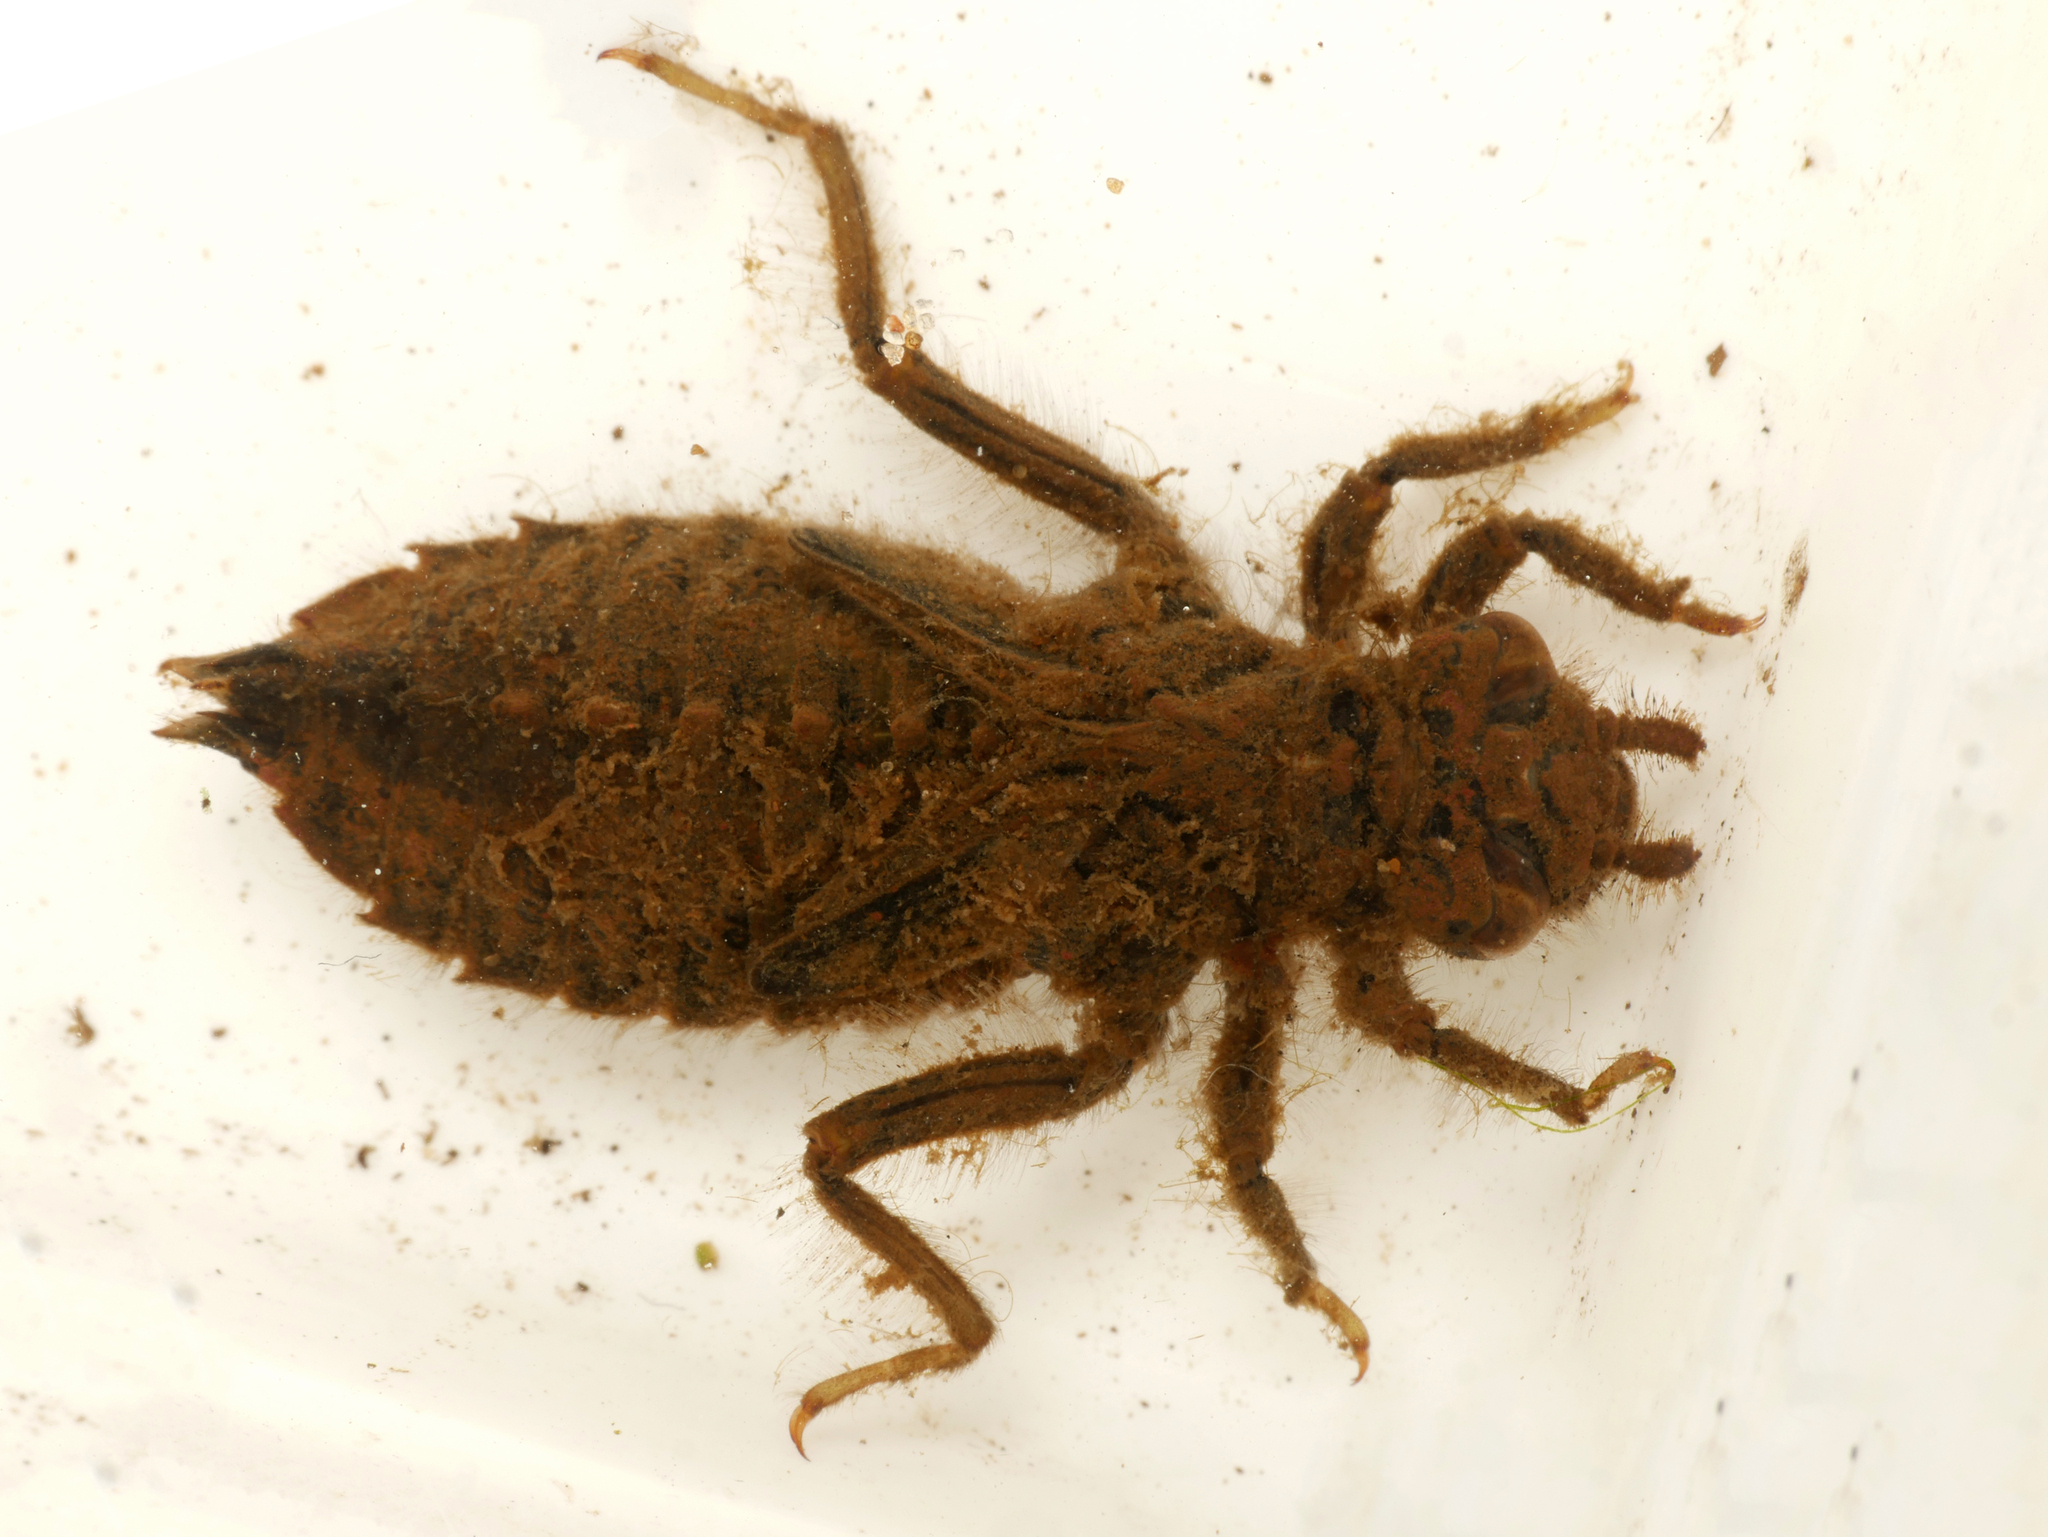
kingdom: Animalia
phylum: Arthropoda
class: Insecta
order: Odonata
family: Gomphidae
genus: Ophiogomphus
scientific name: Ophiogomphus cecilia
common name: Green snaketail
